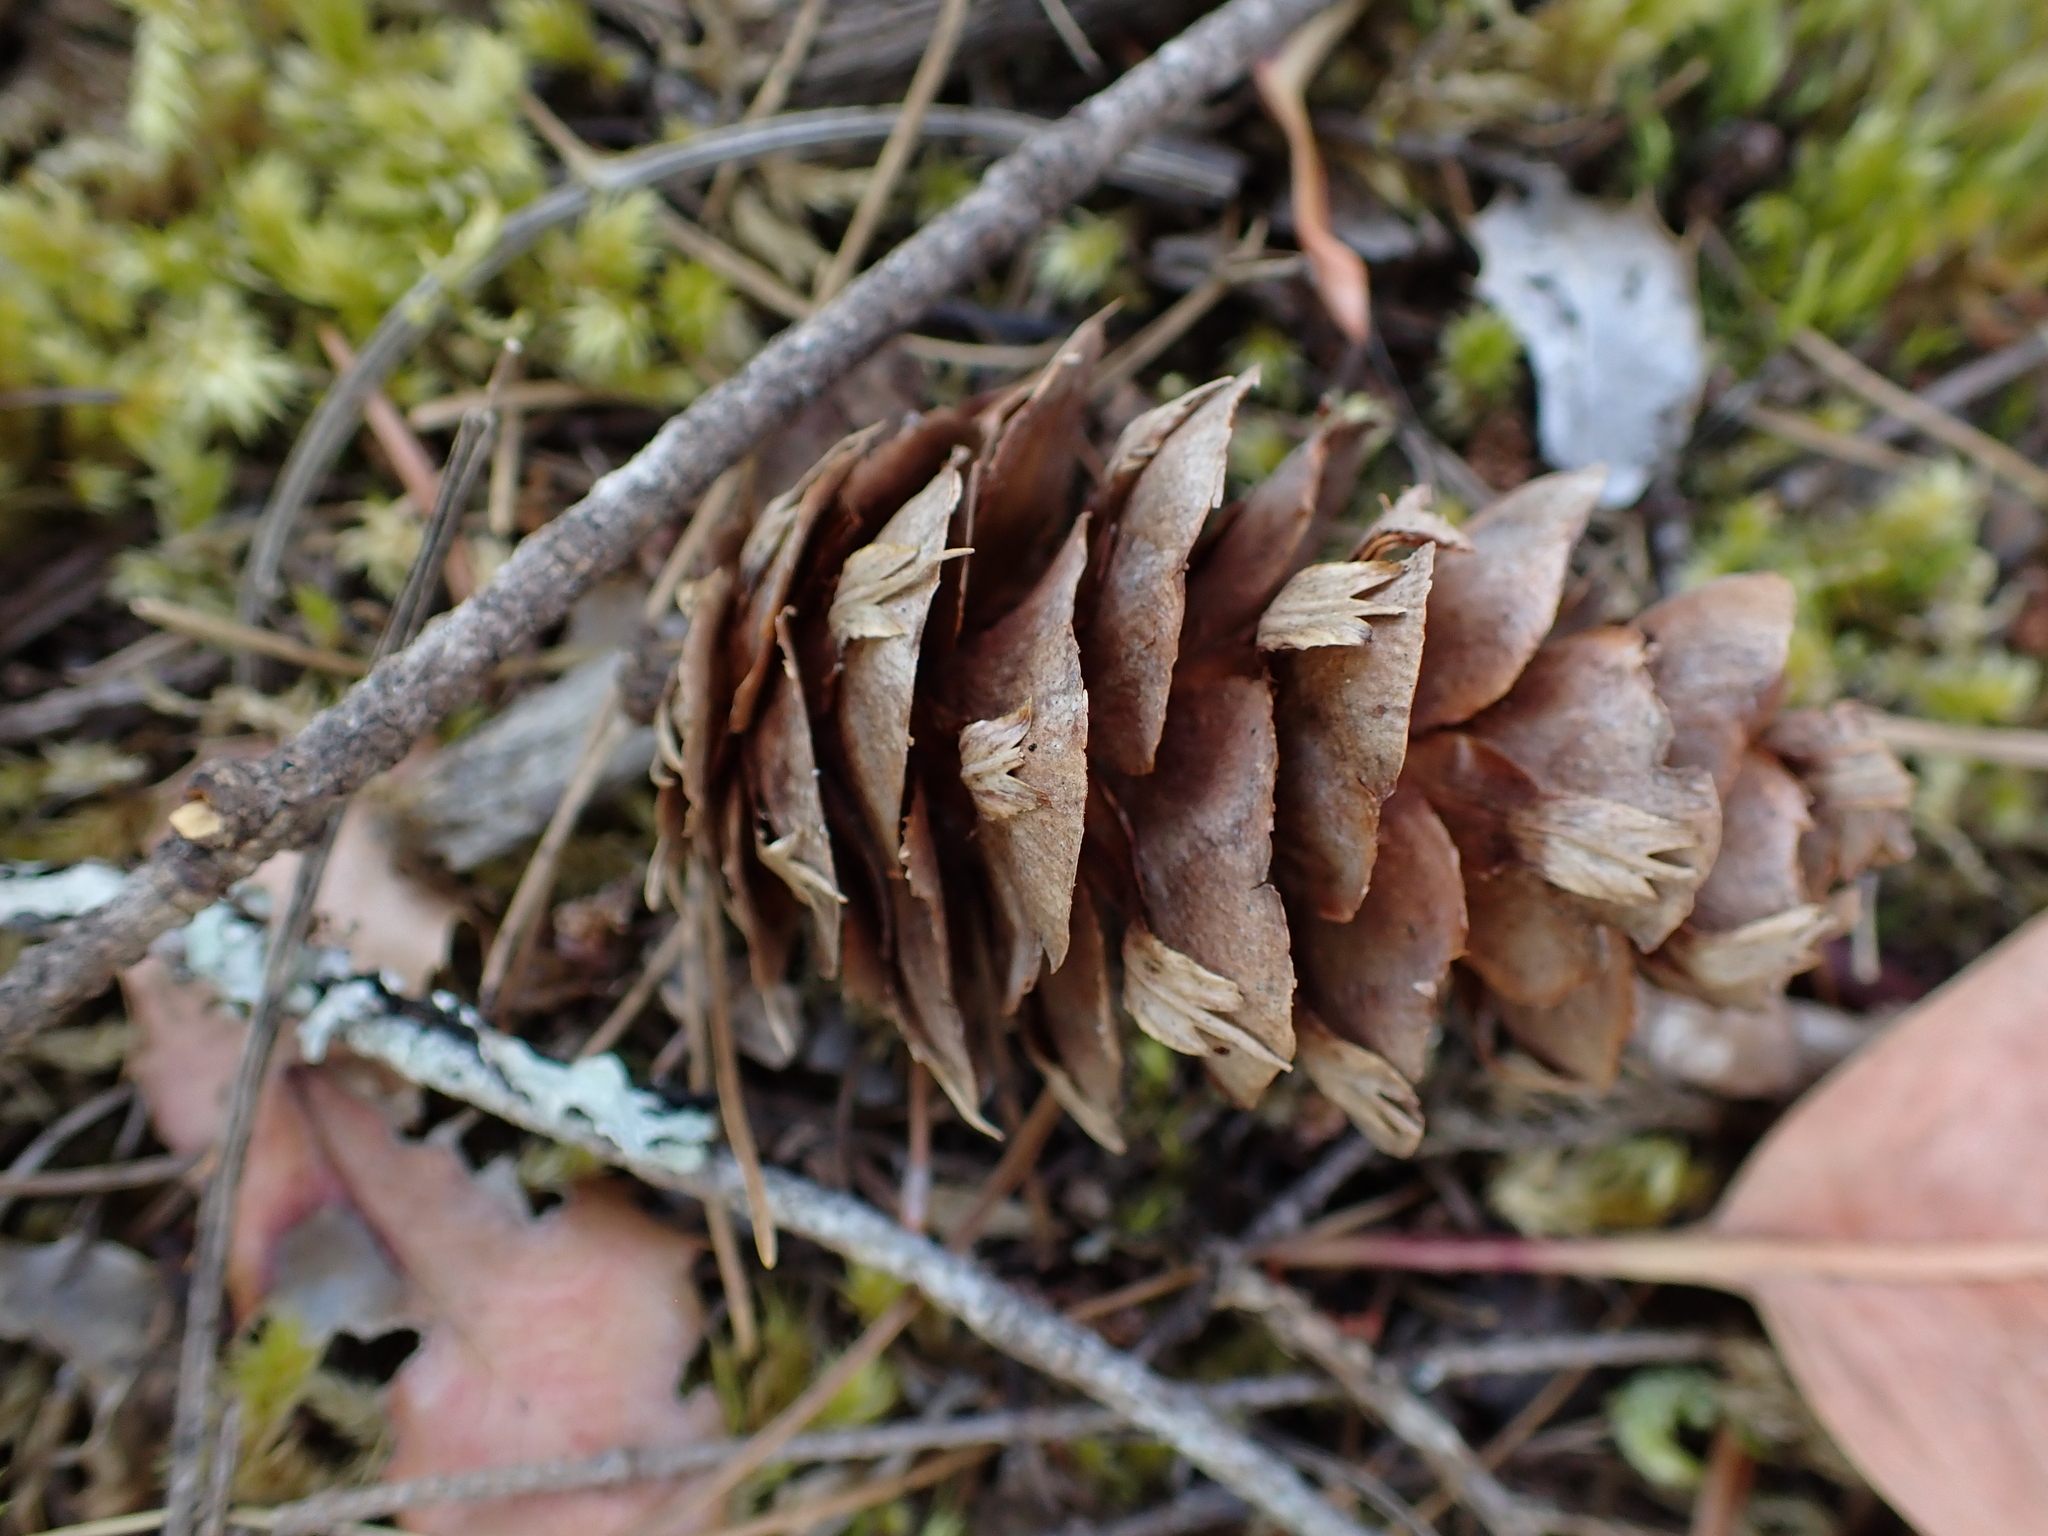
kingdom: Plantae
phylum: Tracheophyta
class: Pinopsida
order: Pinales
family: Pinaceae
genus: Pseudotsuga
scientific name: Pseudotsuga menziesii
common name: Douglas fir
